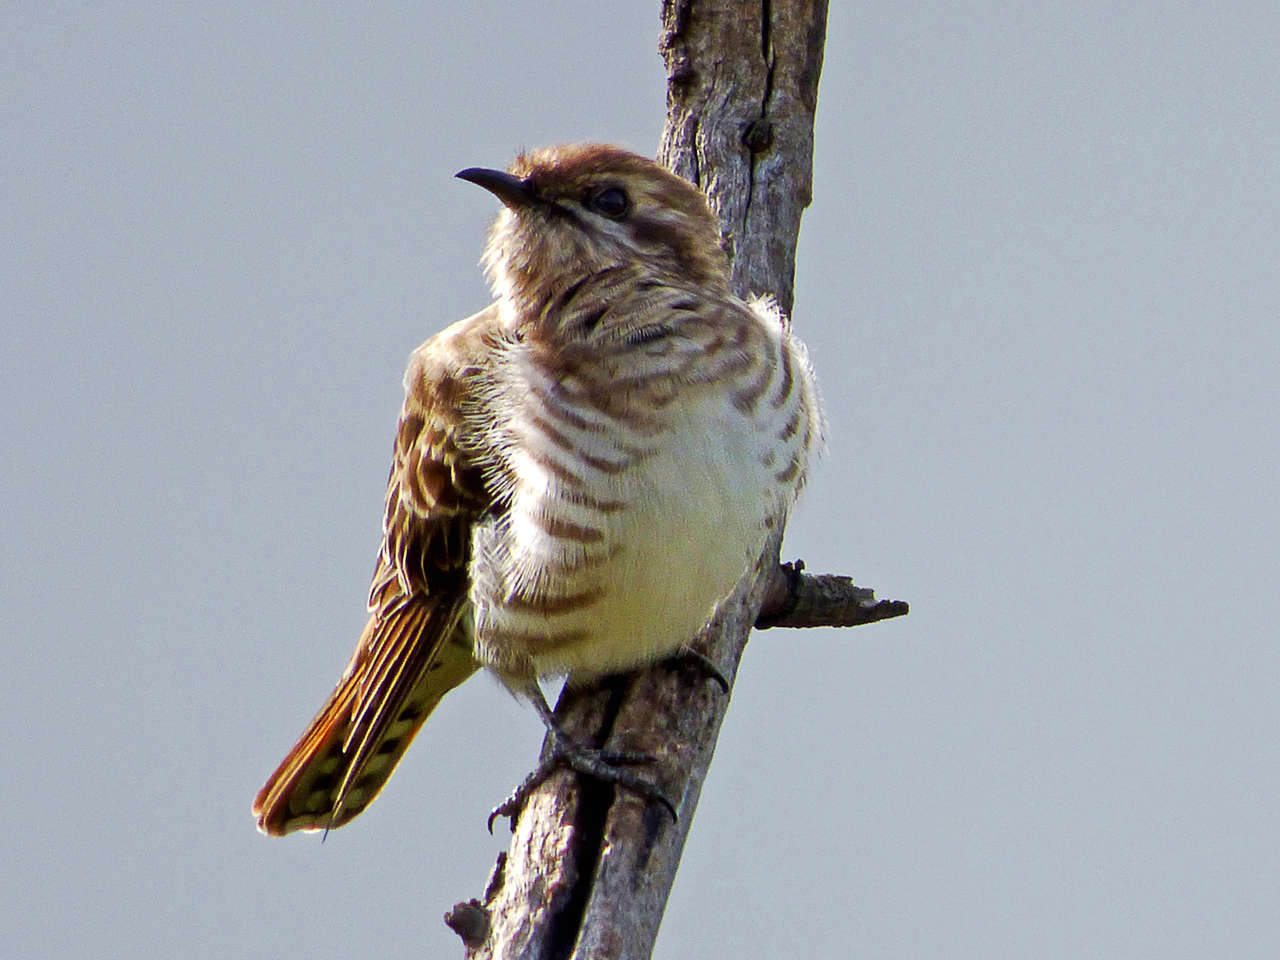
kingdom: Animalia
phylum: Chordata
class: Aves
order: Cuculiformes
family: Cuculidae
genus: Chrysococcyx
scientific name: Chrysococcyx basalis
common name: Horsfield's bronze cuckoo
